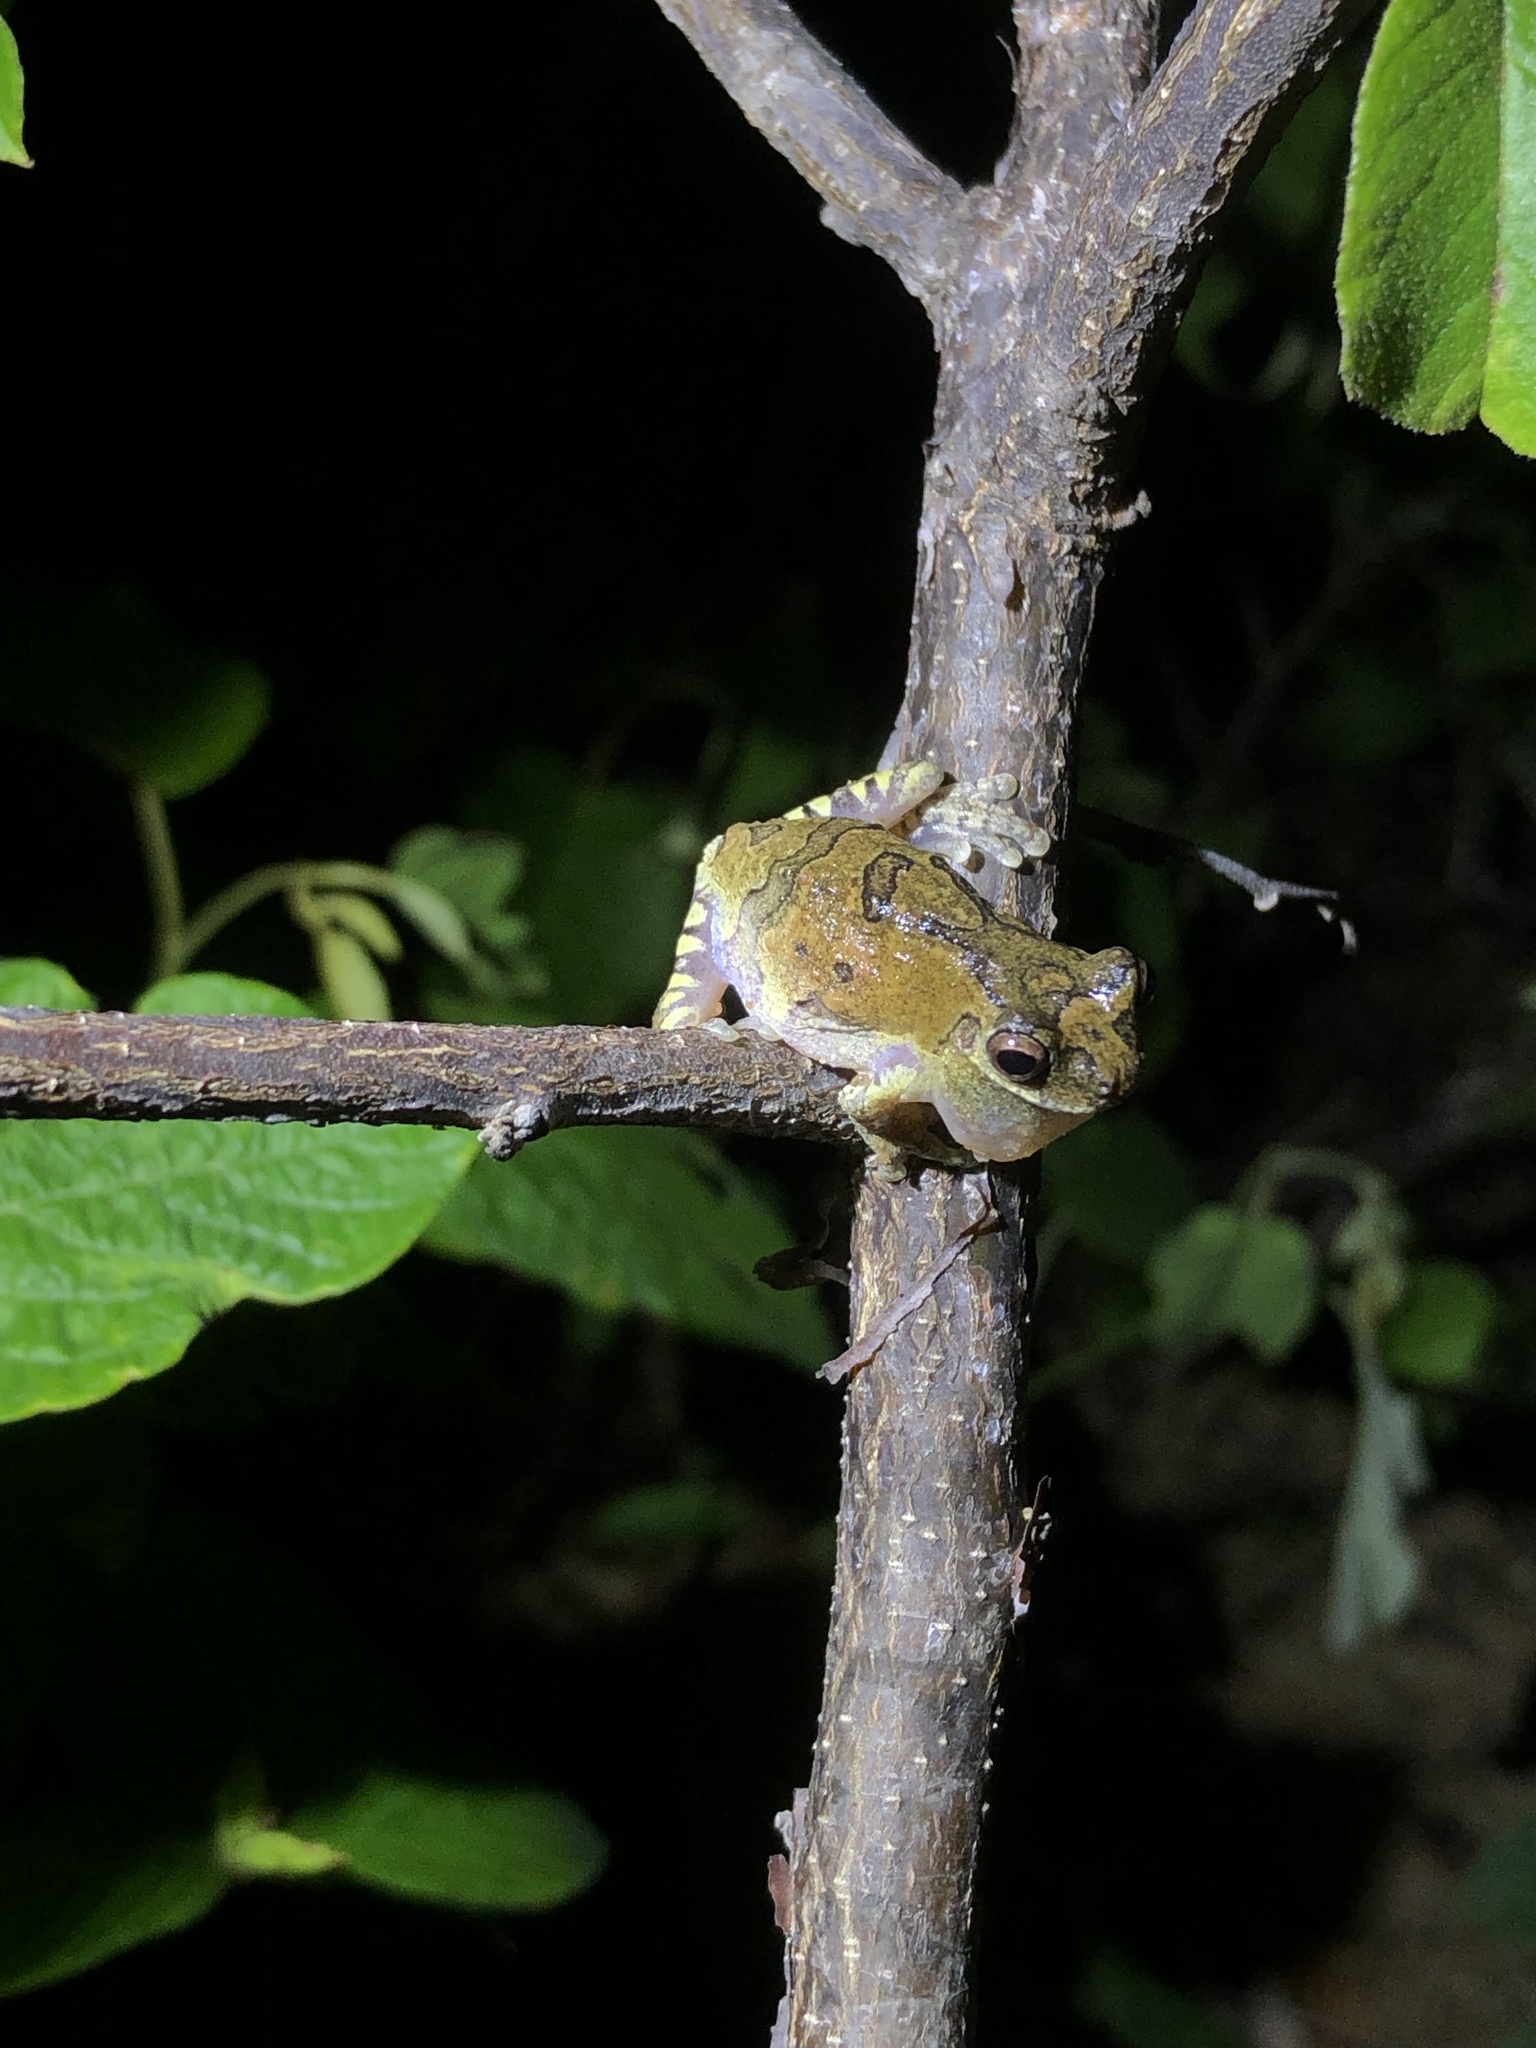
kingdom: Animalia
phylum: Chordata
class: Amphibia
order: Anura
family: Hylidae
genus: Dendropsophus
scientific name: Dendropsophus soaresi
